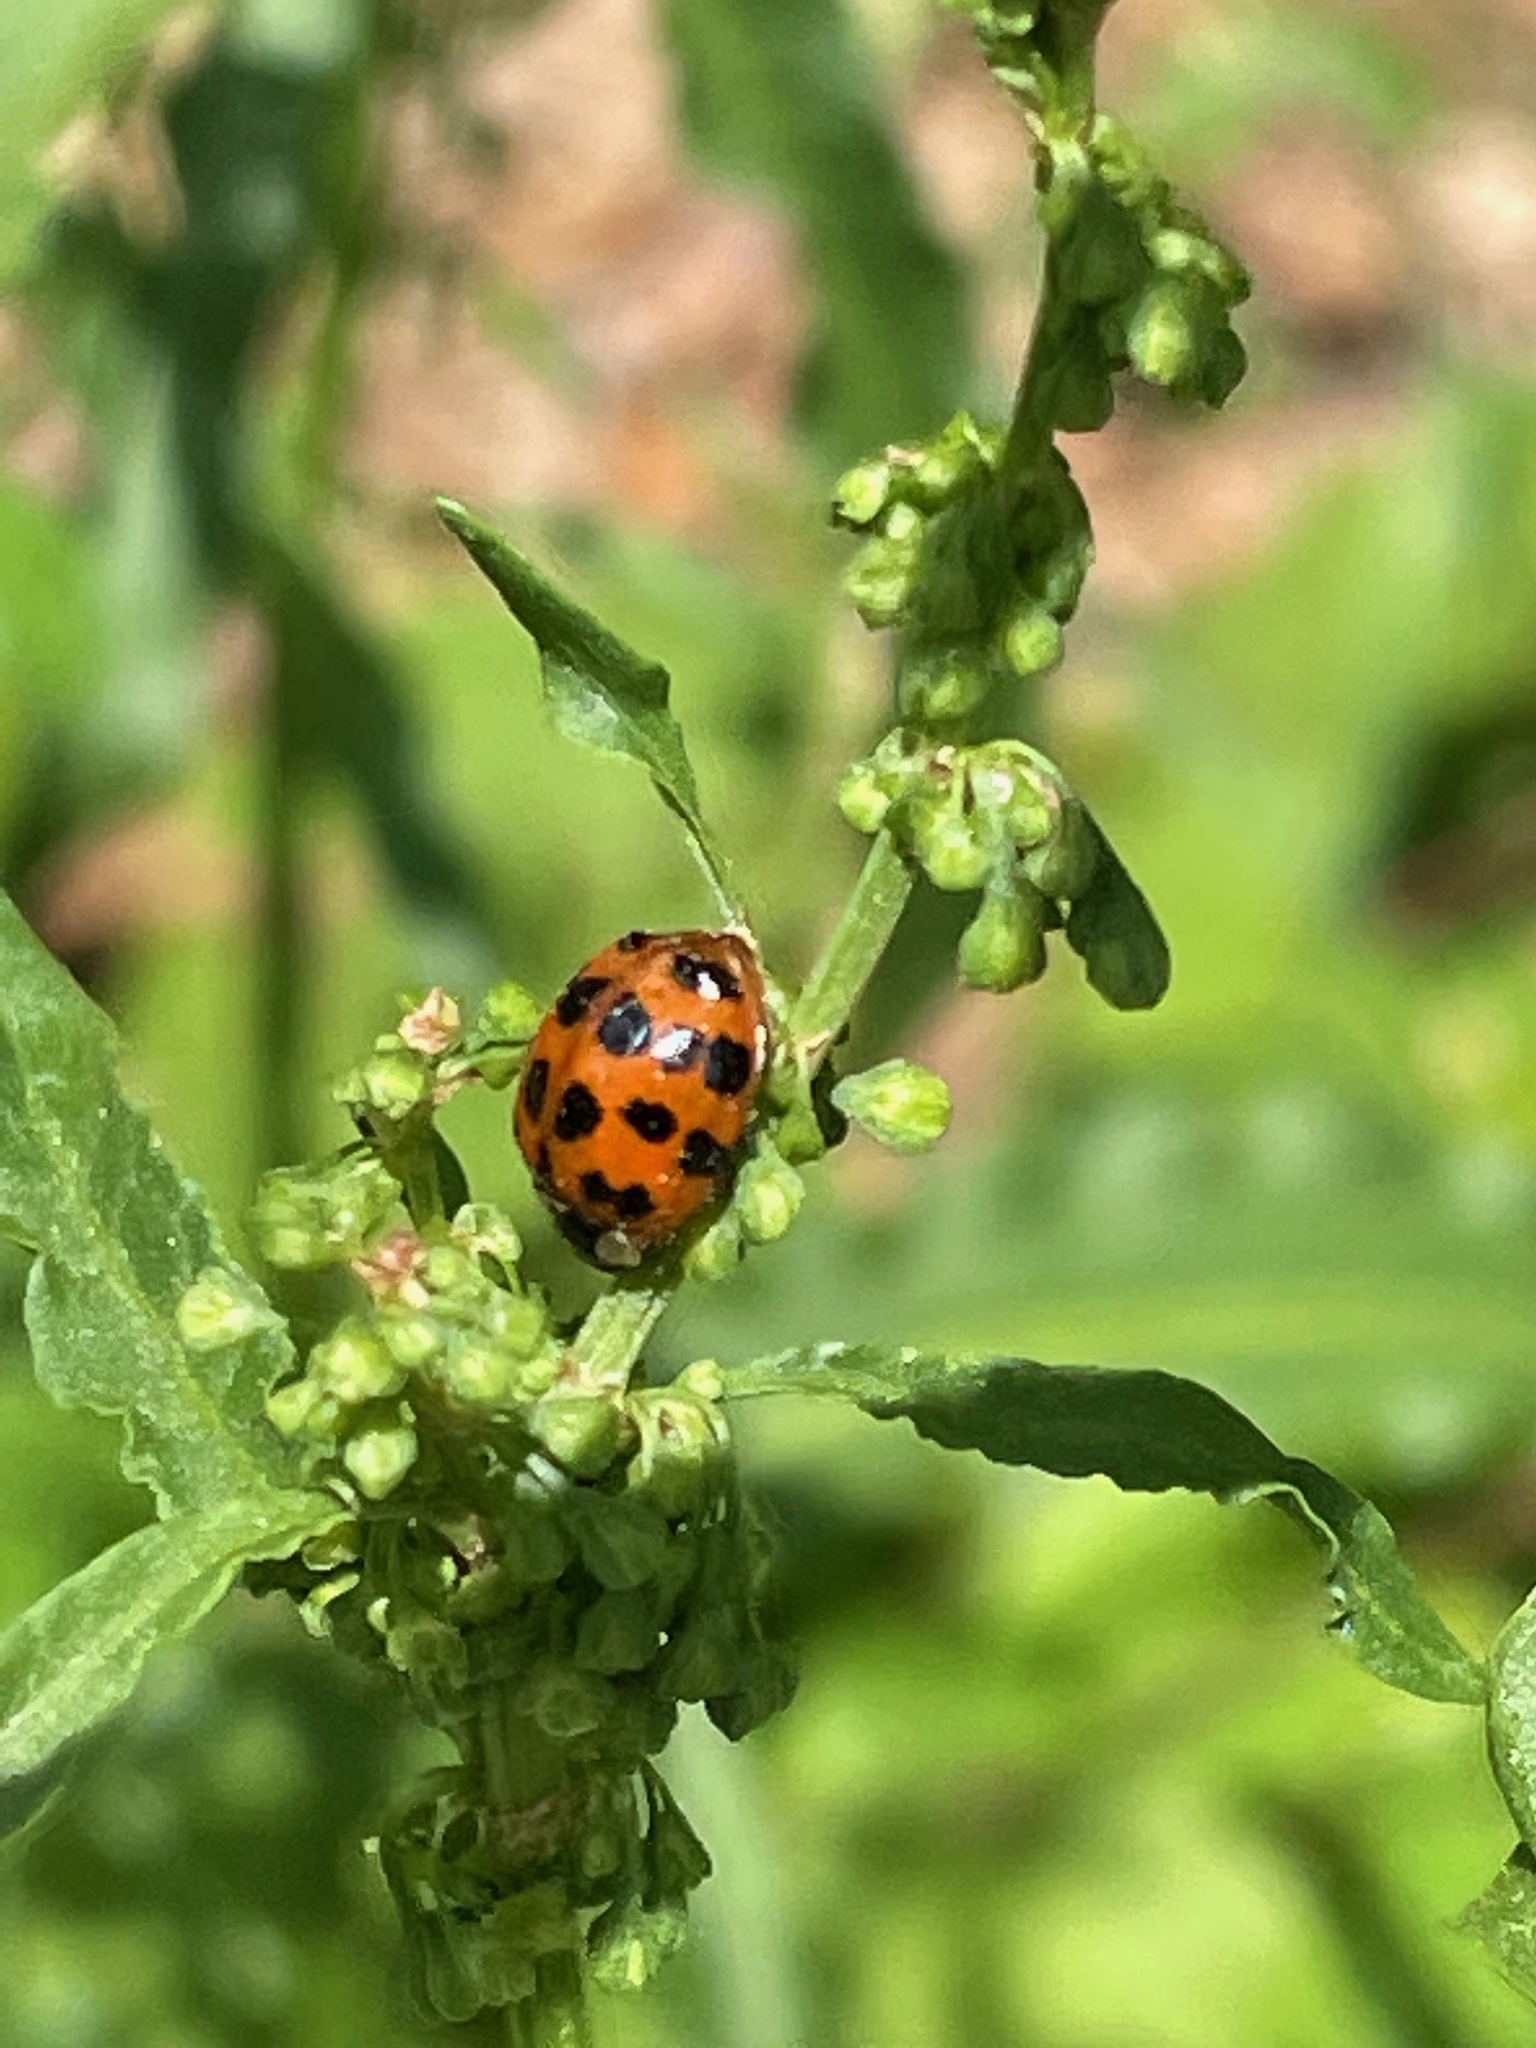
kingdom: Animalia
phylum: Arthropoda
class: Insecta
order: Coleoptera
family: Coccinellidae
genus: Harmonia
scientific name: Harmonia axyridis
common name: Harlequin ladybird
